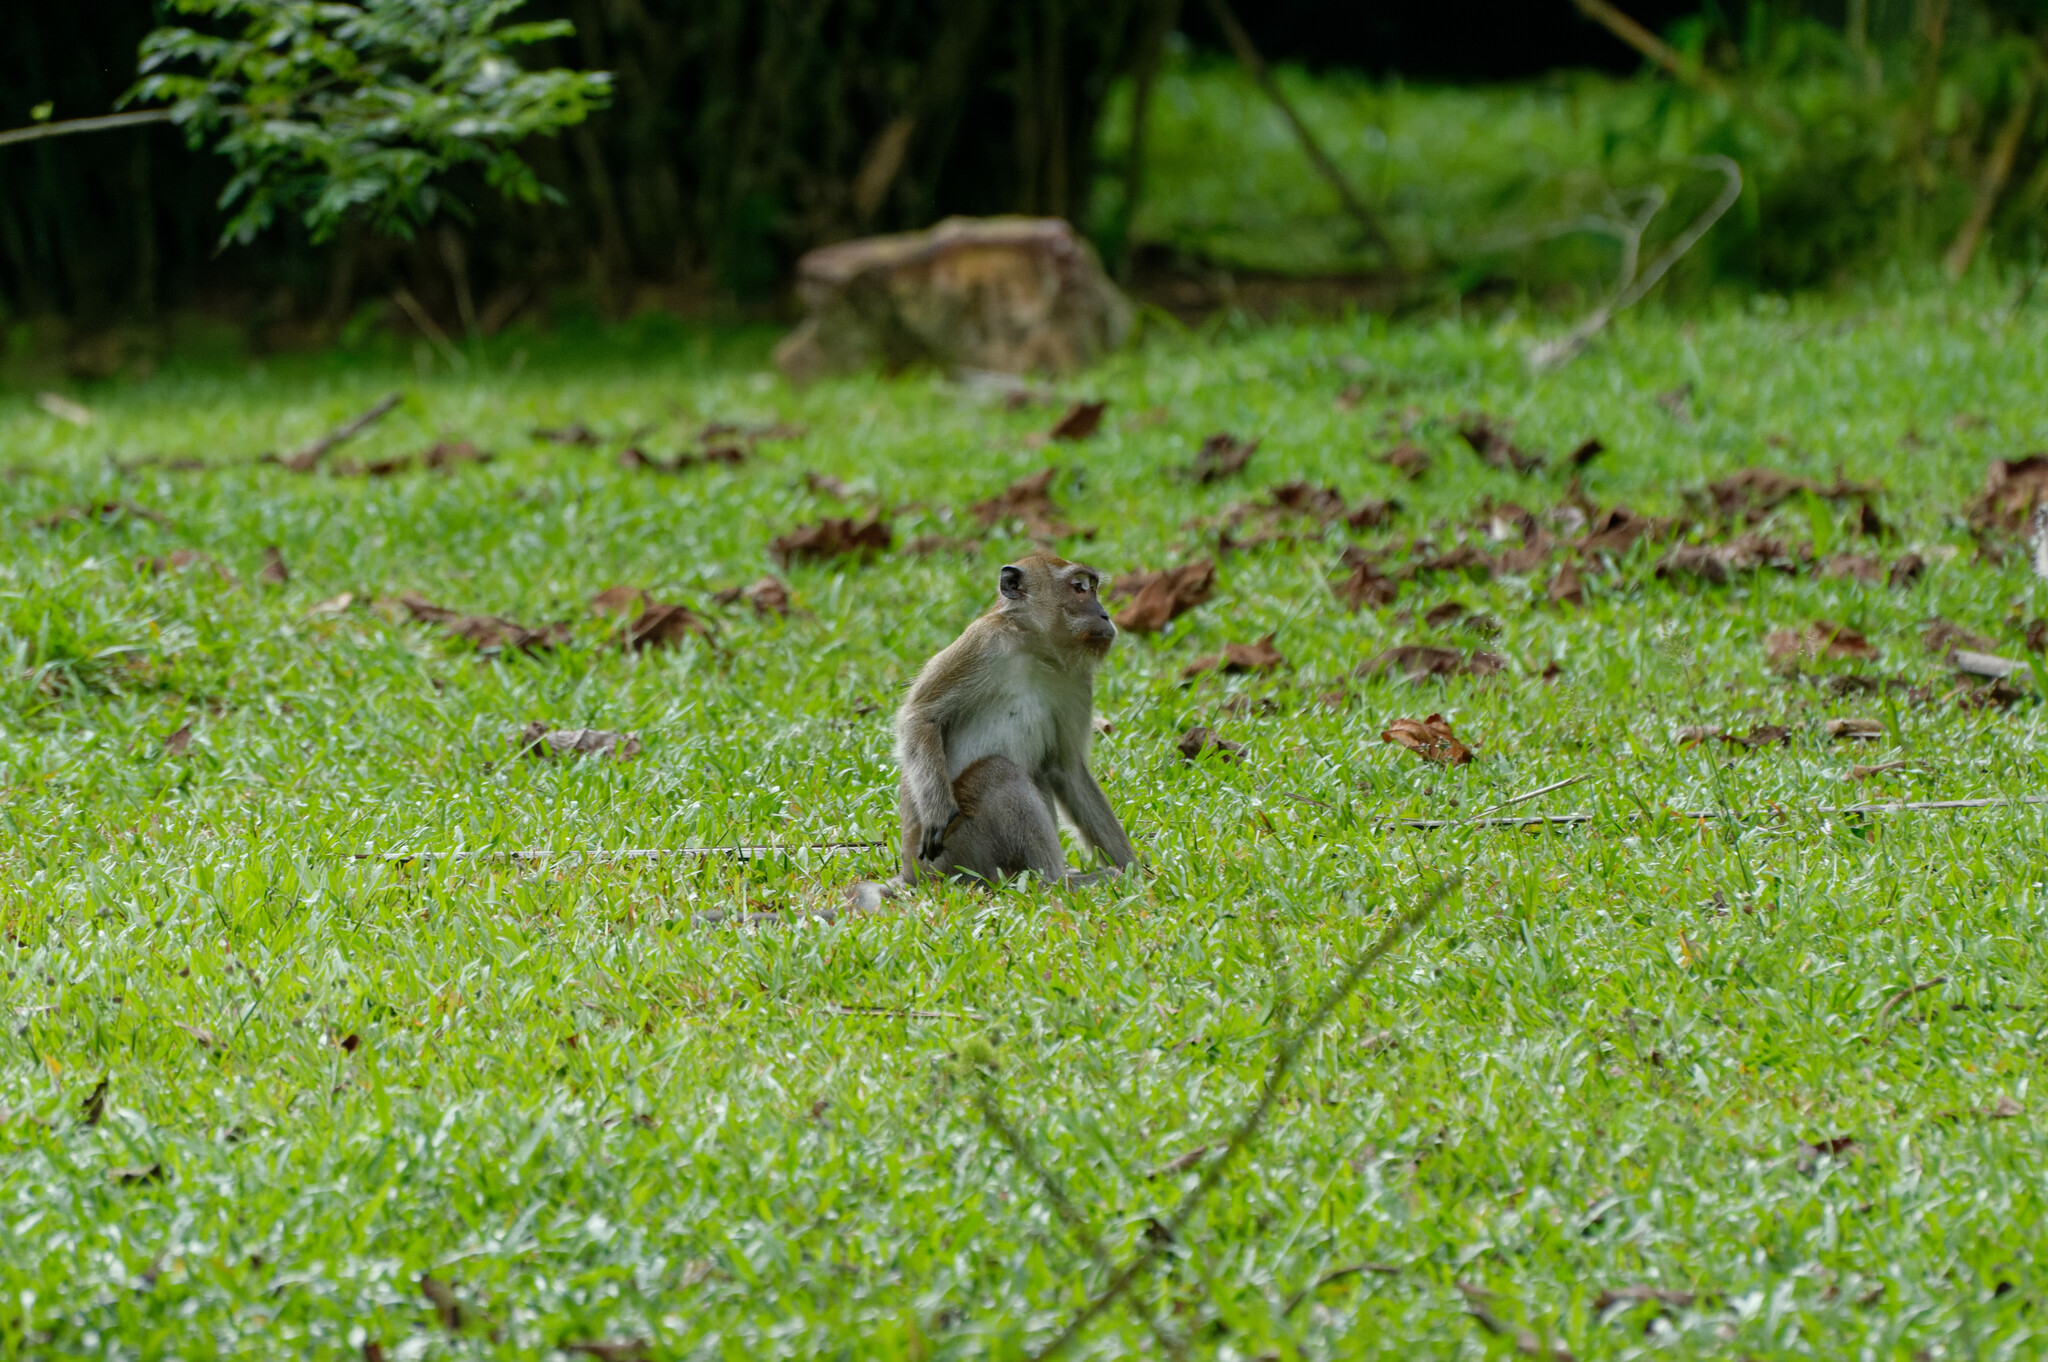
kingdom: Animalia
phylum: Chordata
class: Mammalia
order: Primates
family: Cercopithecidae
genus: Macaca
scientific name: Macaca fascicularis
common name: Crab-eating macaque
